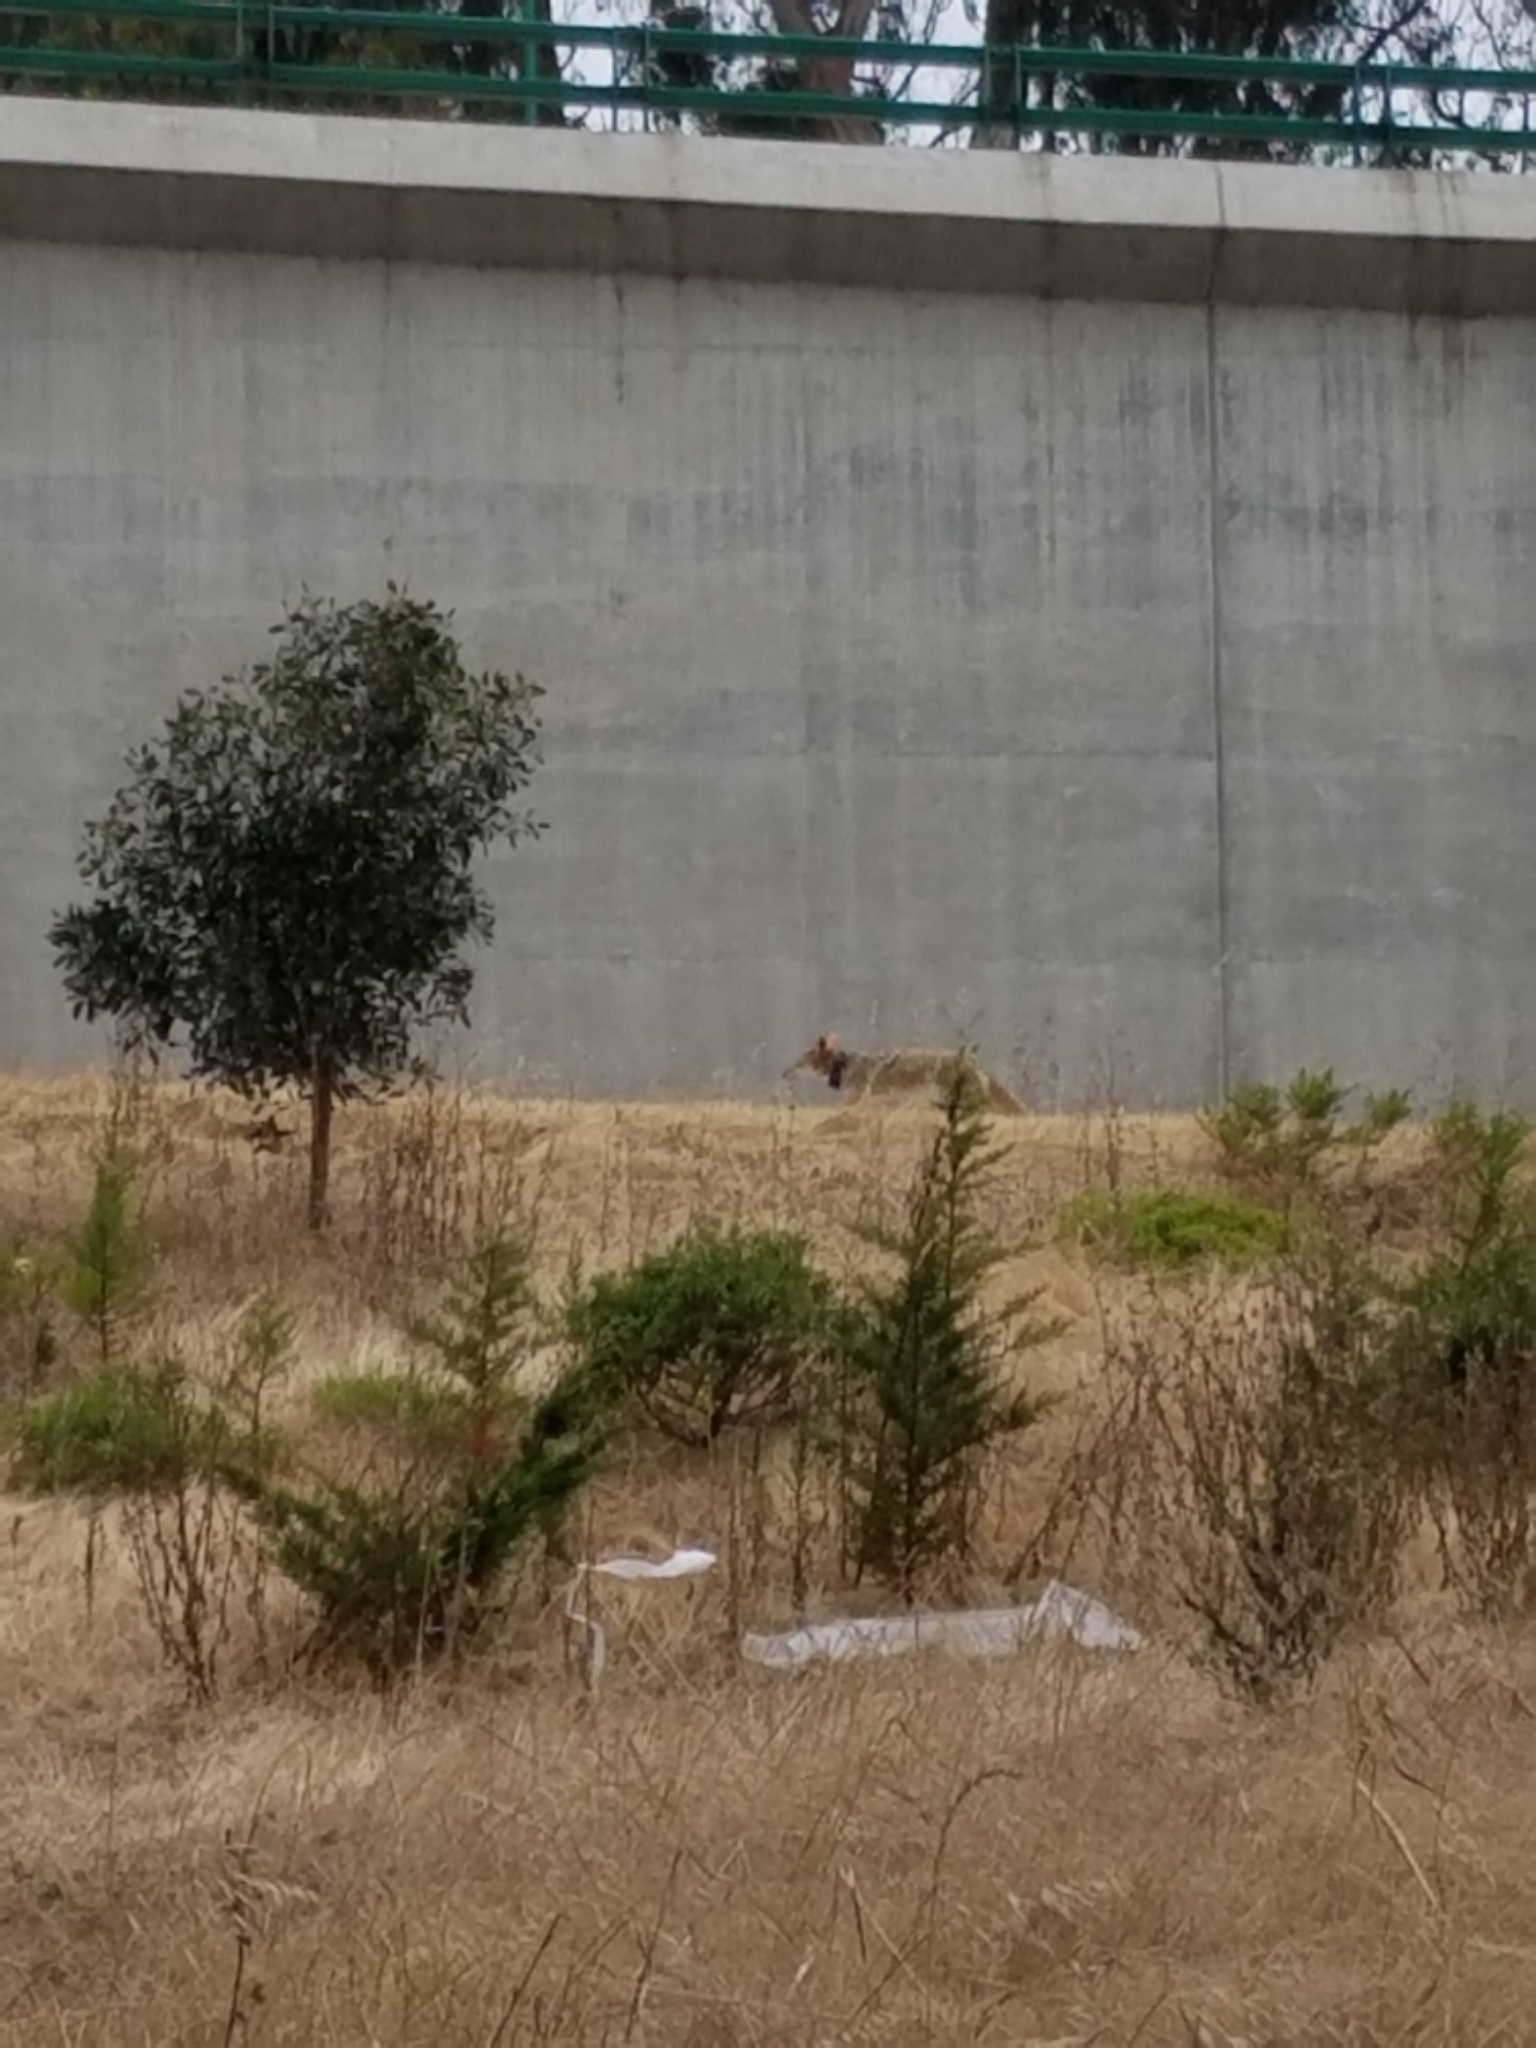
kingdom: Animalia
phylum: Chordata
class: Mammalia
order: Carnivora
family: Canidae
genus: Canis
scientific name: Canis latrans
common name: Coyote
